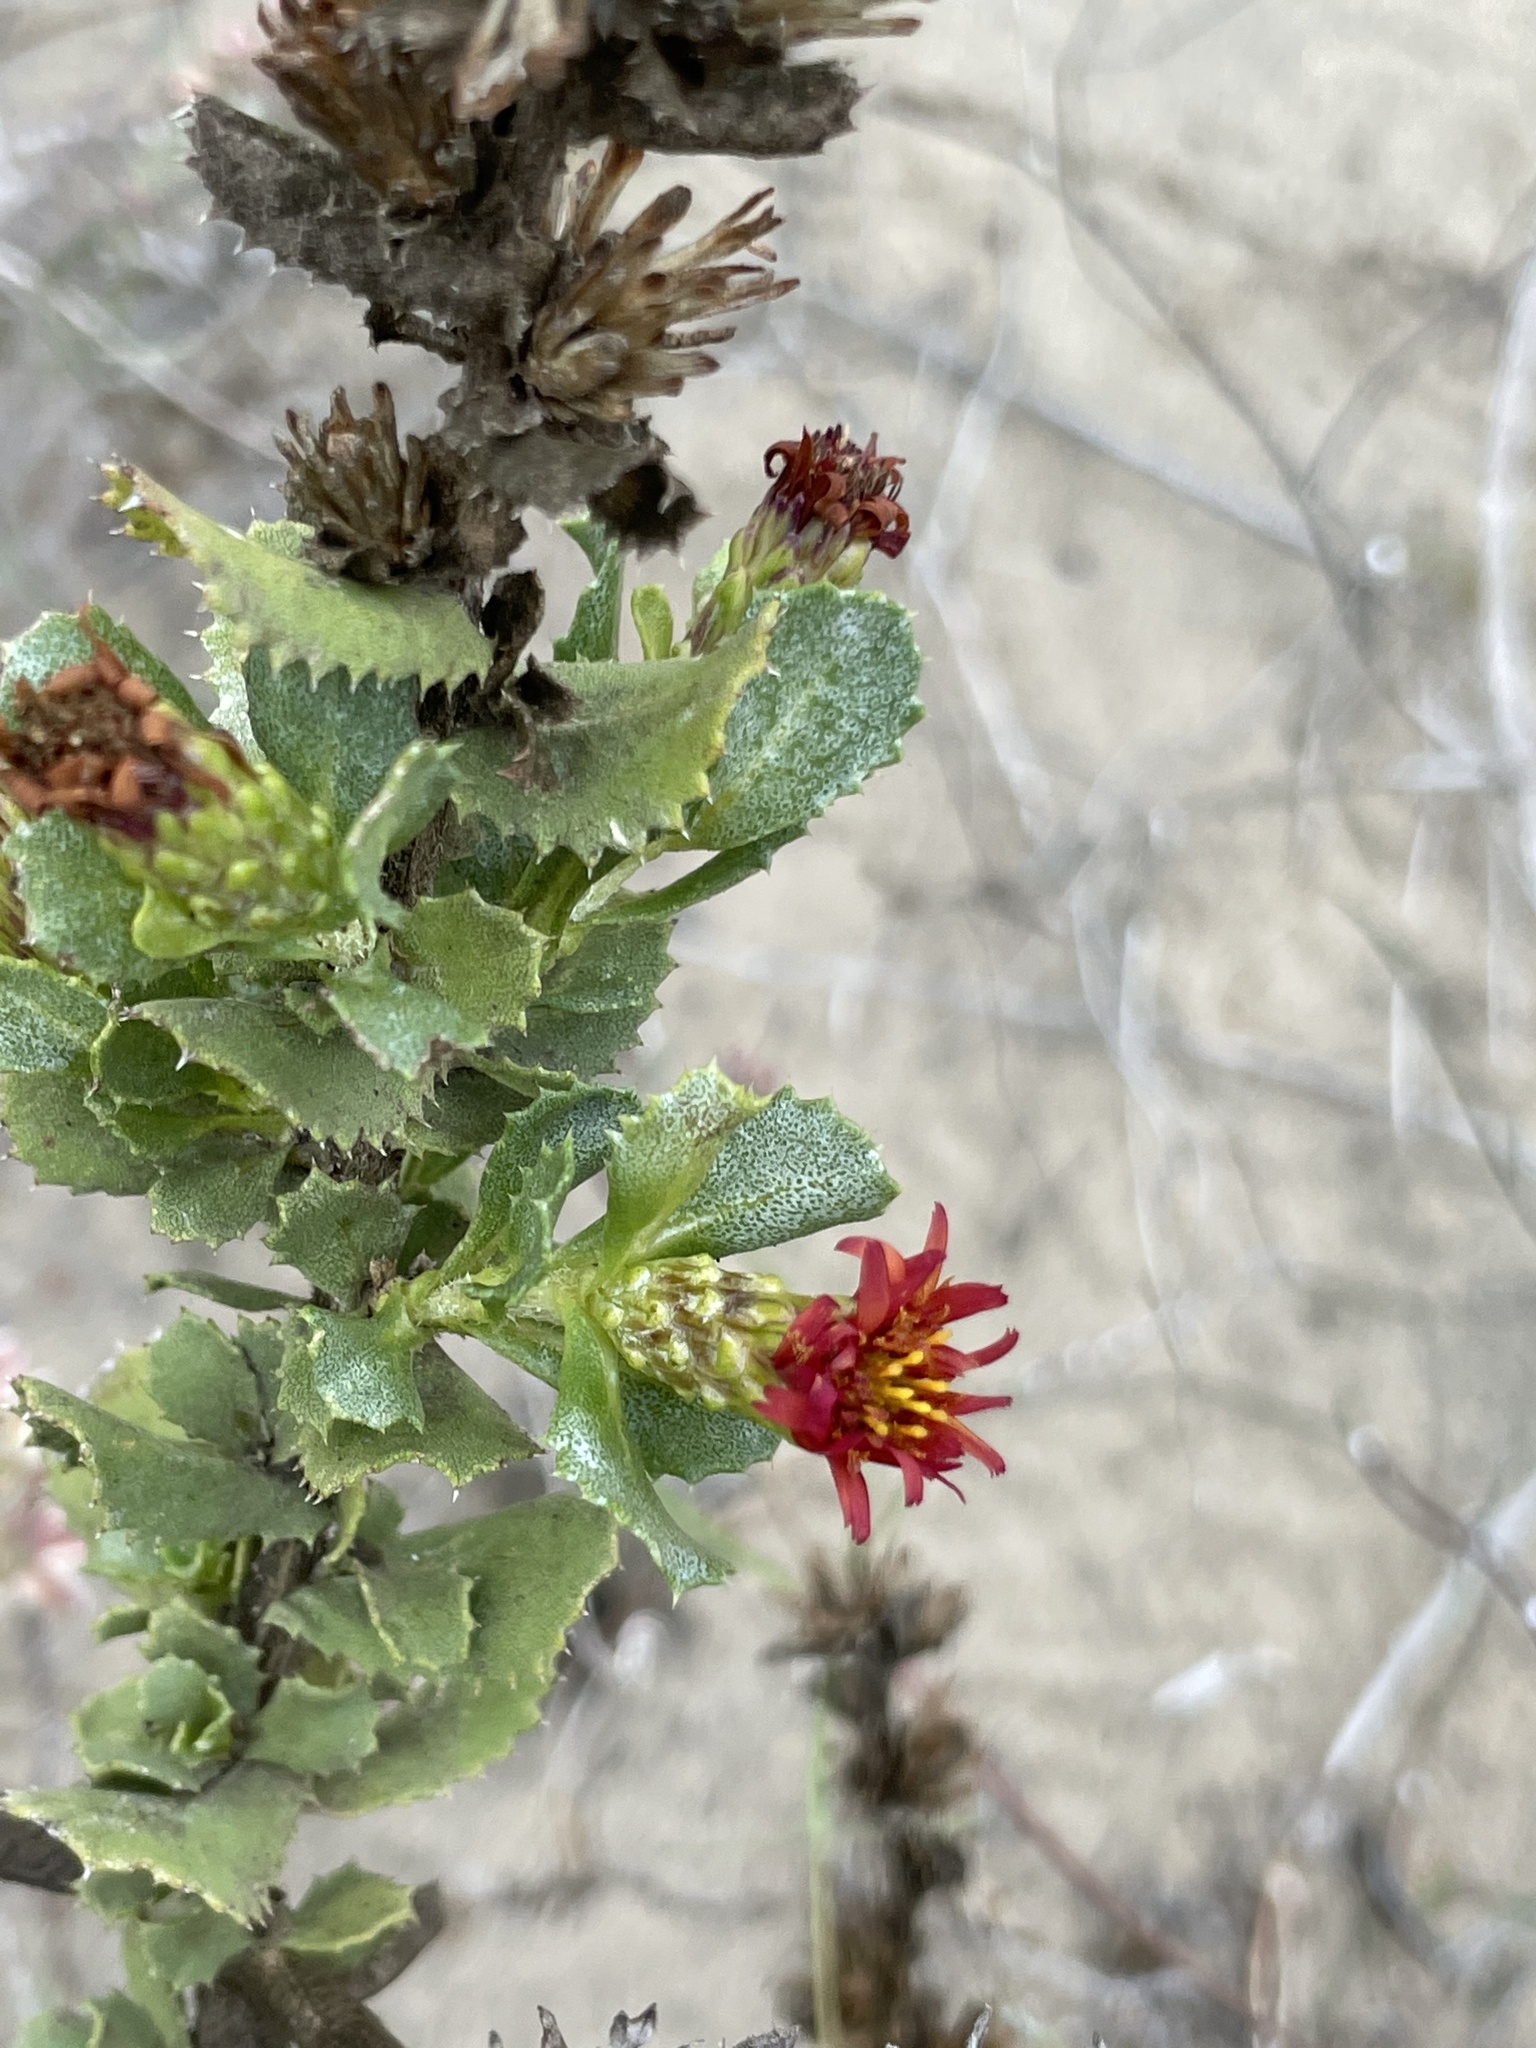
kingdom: Plantae
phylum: Tracheophyta
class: Magnoliopsida
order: Asterales
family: Asteraceae
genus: Hazardia
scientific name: Hazardia berberidis
